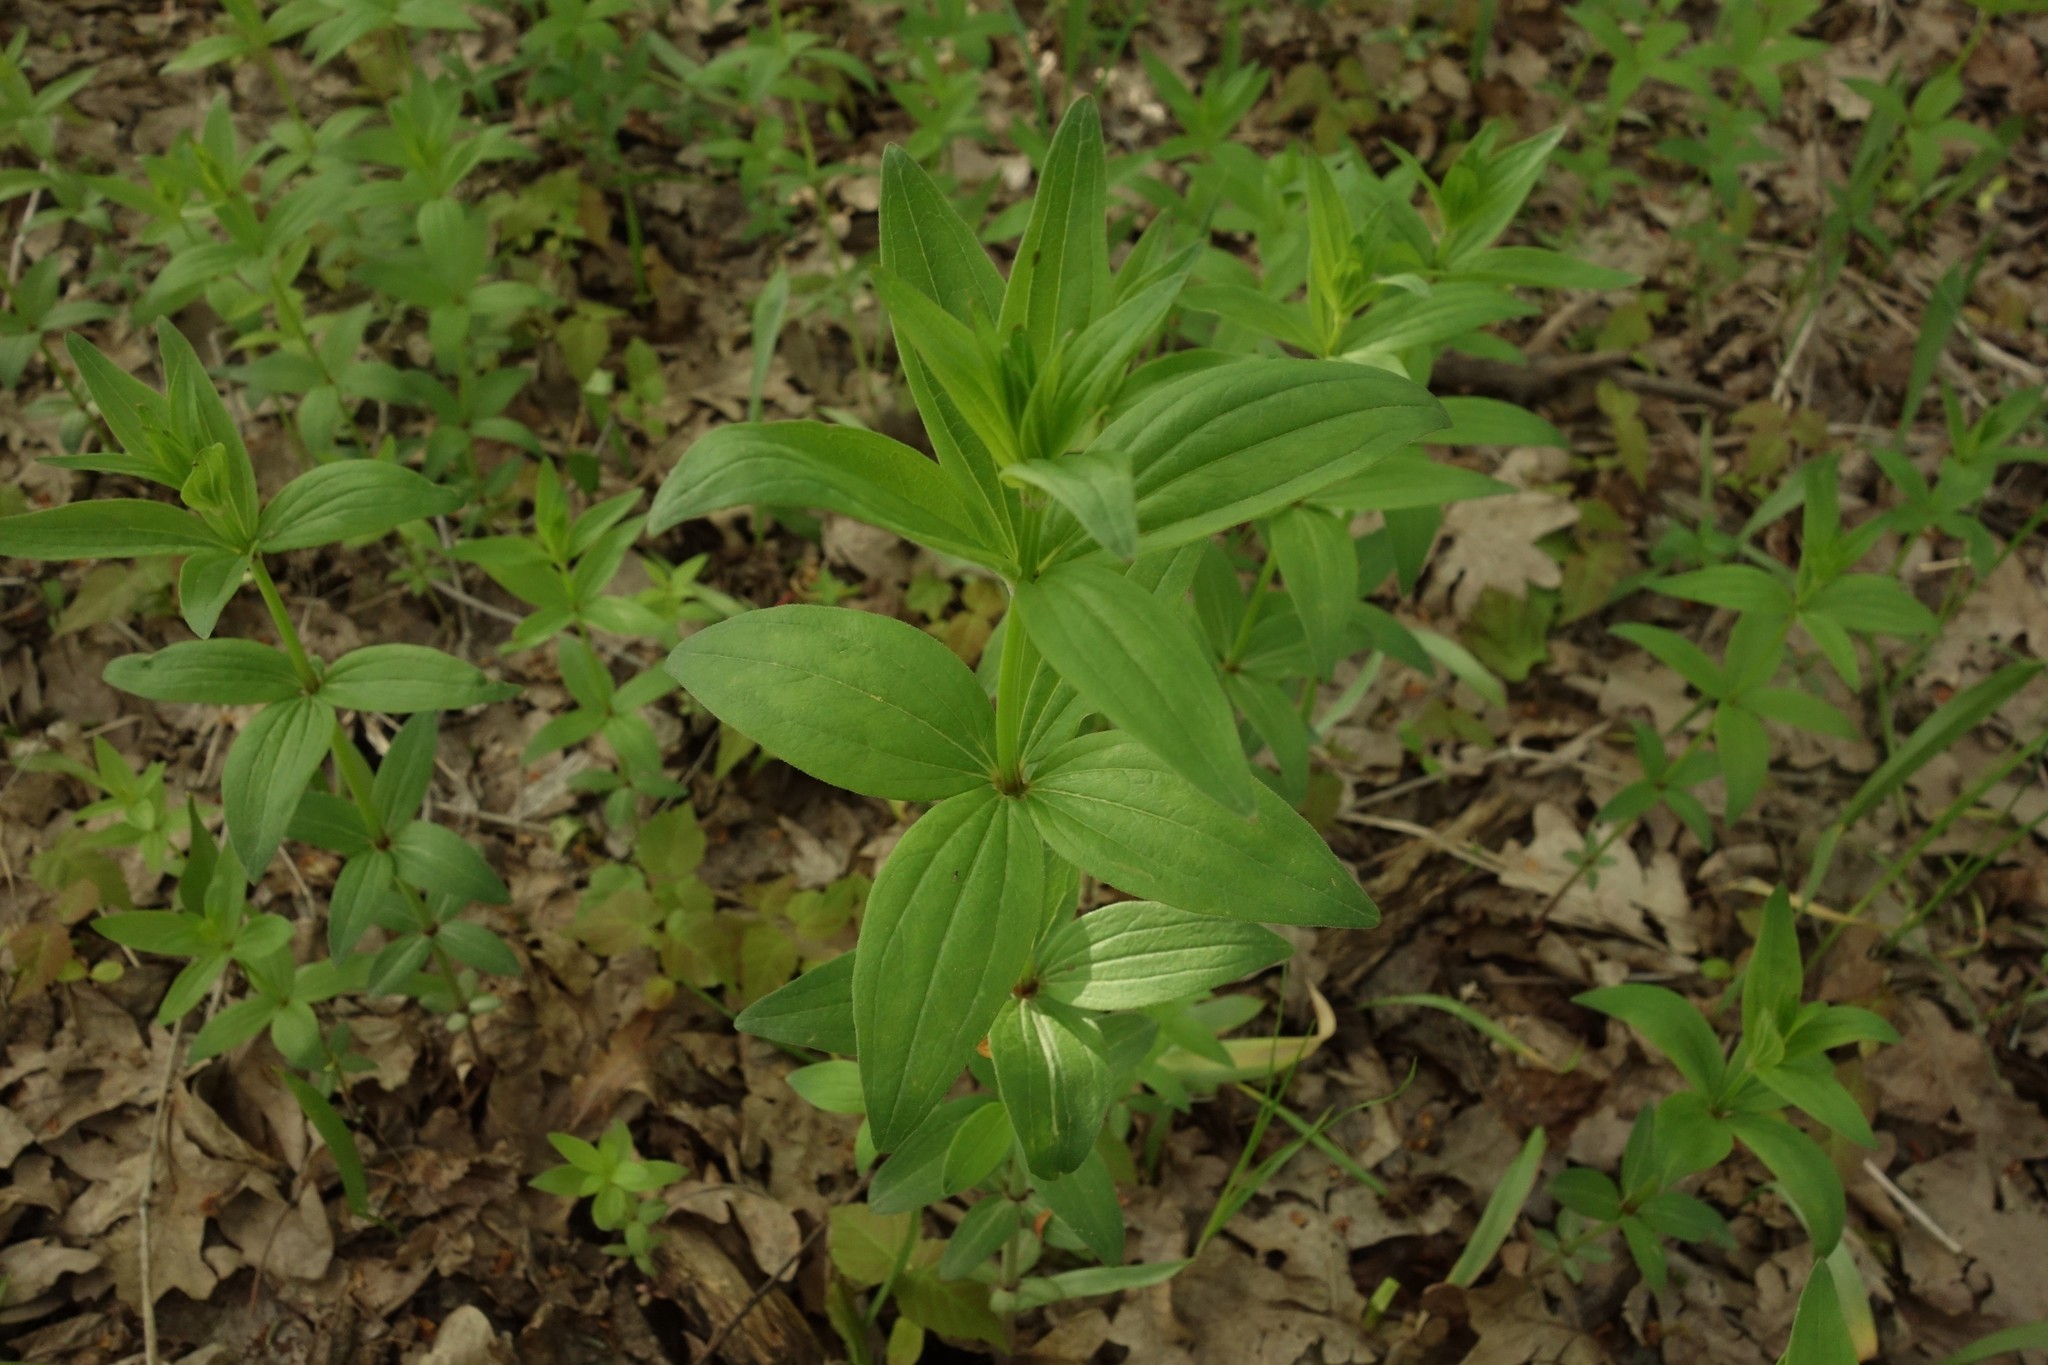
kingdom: Plantae
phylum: Tracheophyta
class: Magnoliopsida
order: Gentianales
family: Rubiaceae
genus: Galium
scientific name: Galium rubioides
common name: European bedstraw
